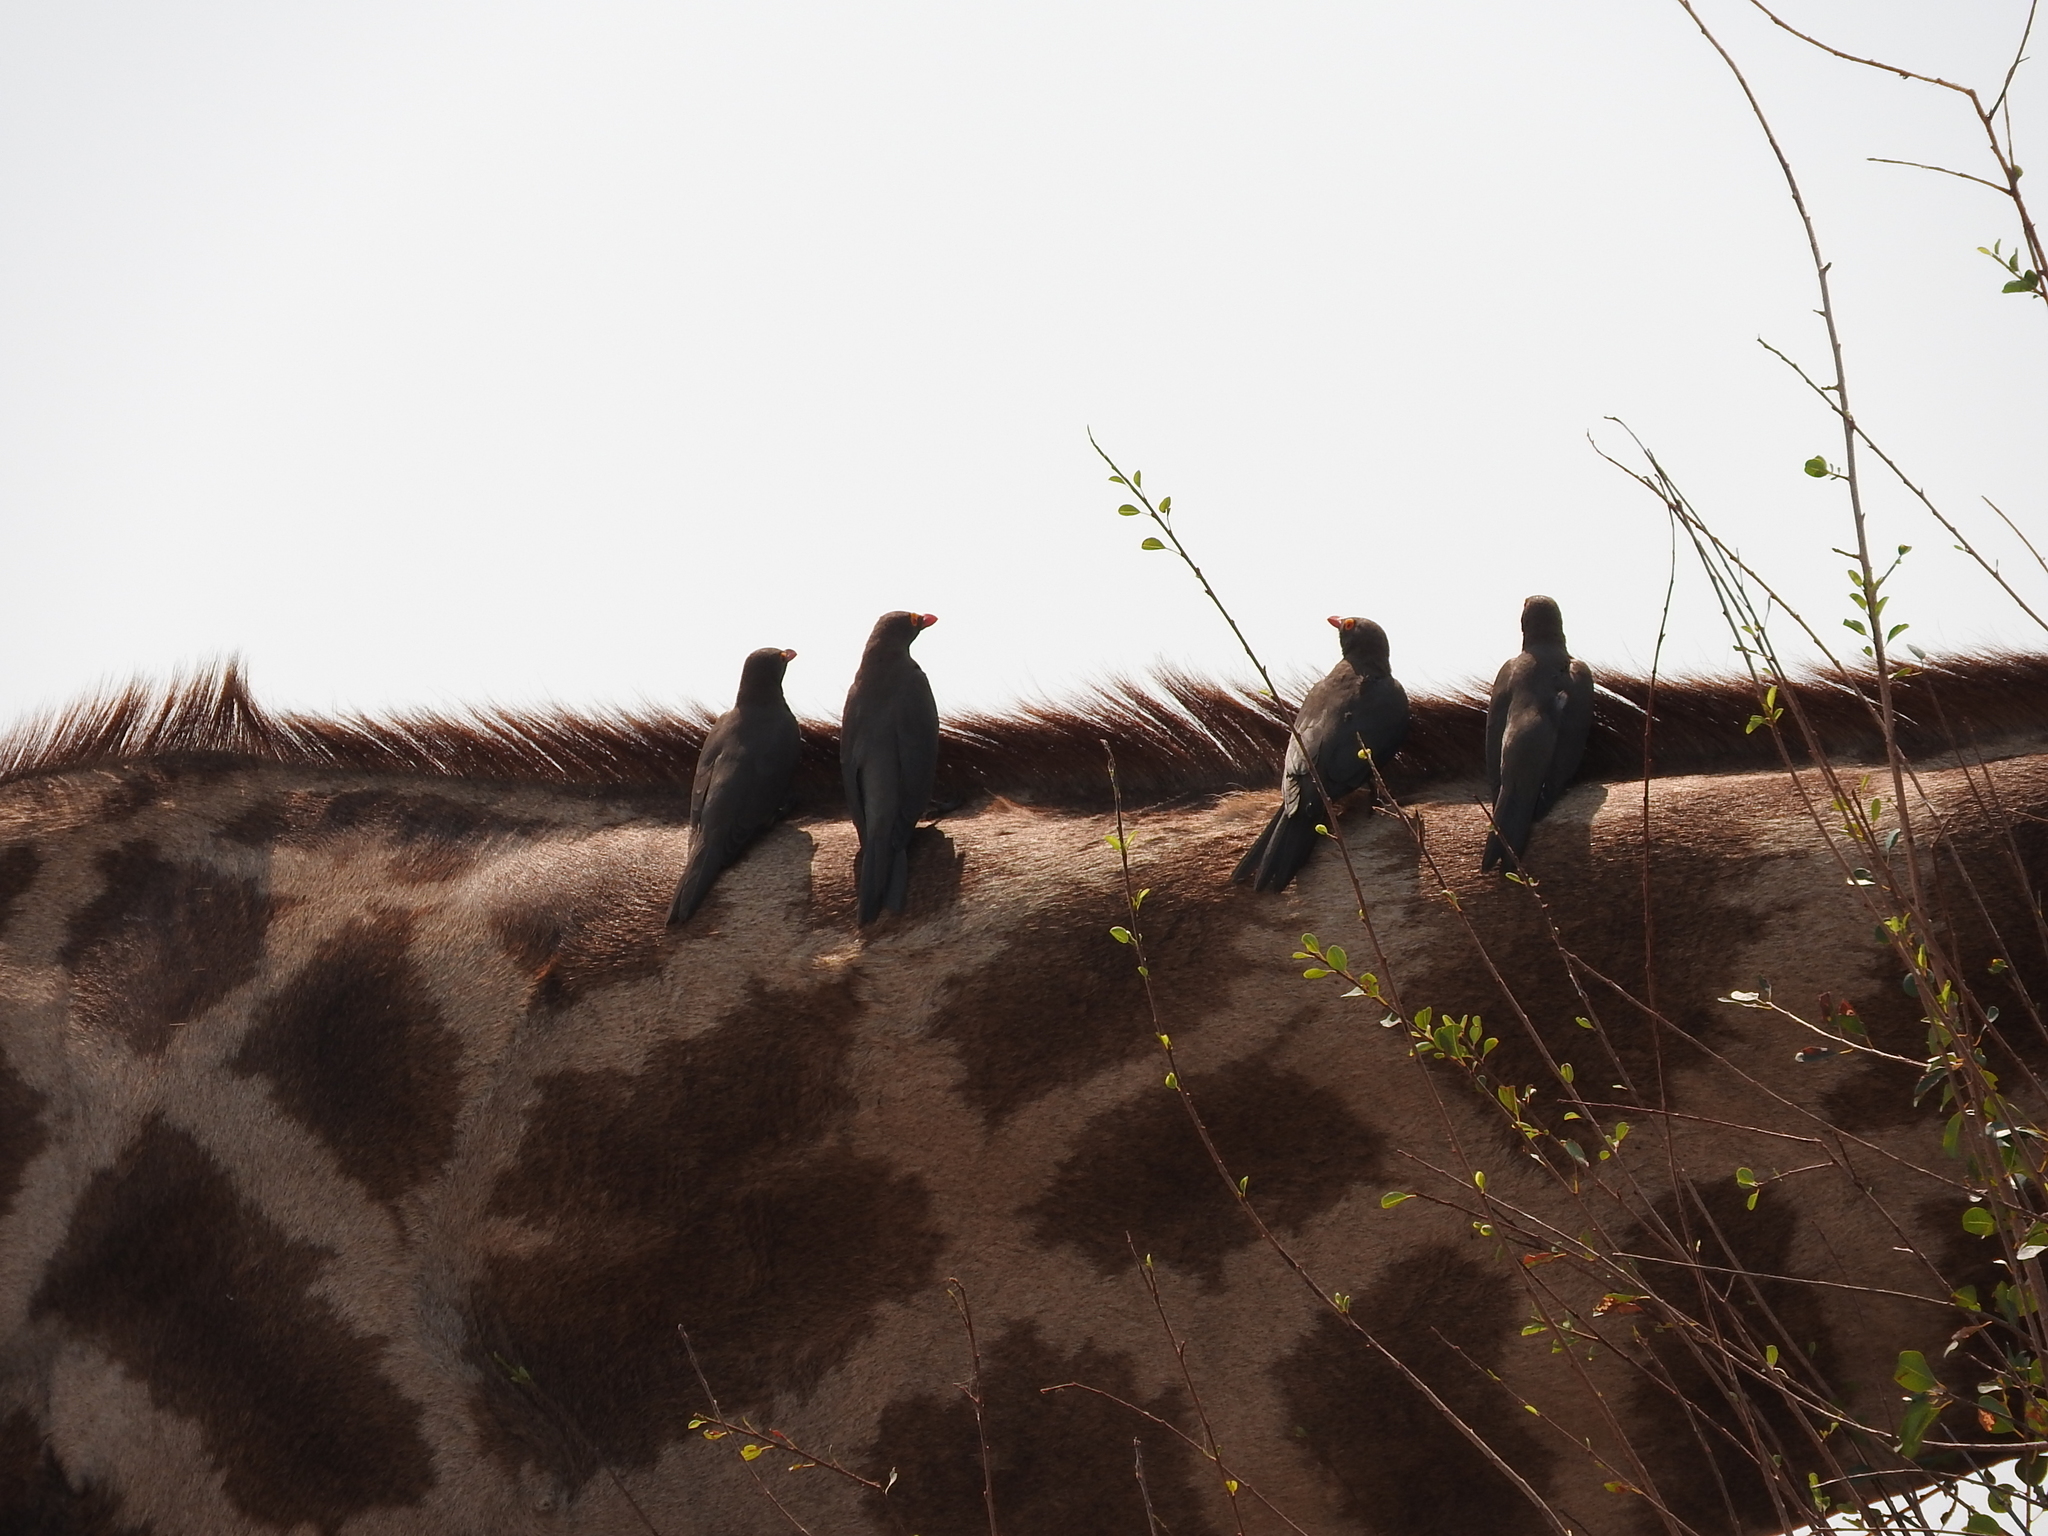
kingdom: Animalia
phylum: Chordata
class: Aves
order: Passeriformes
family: Buphagidae
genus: Buphagus
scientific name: Buphagus erythrorhynchus
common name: Red-billed oxpecker
